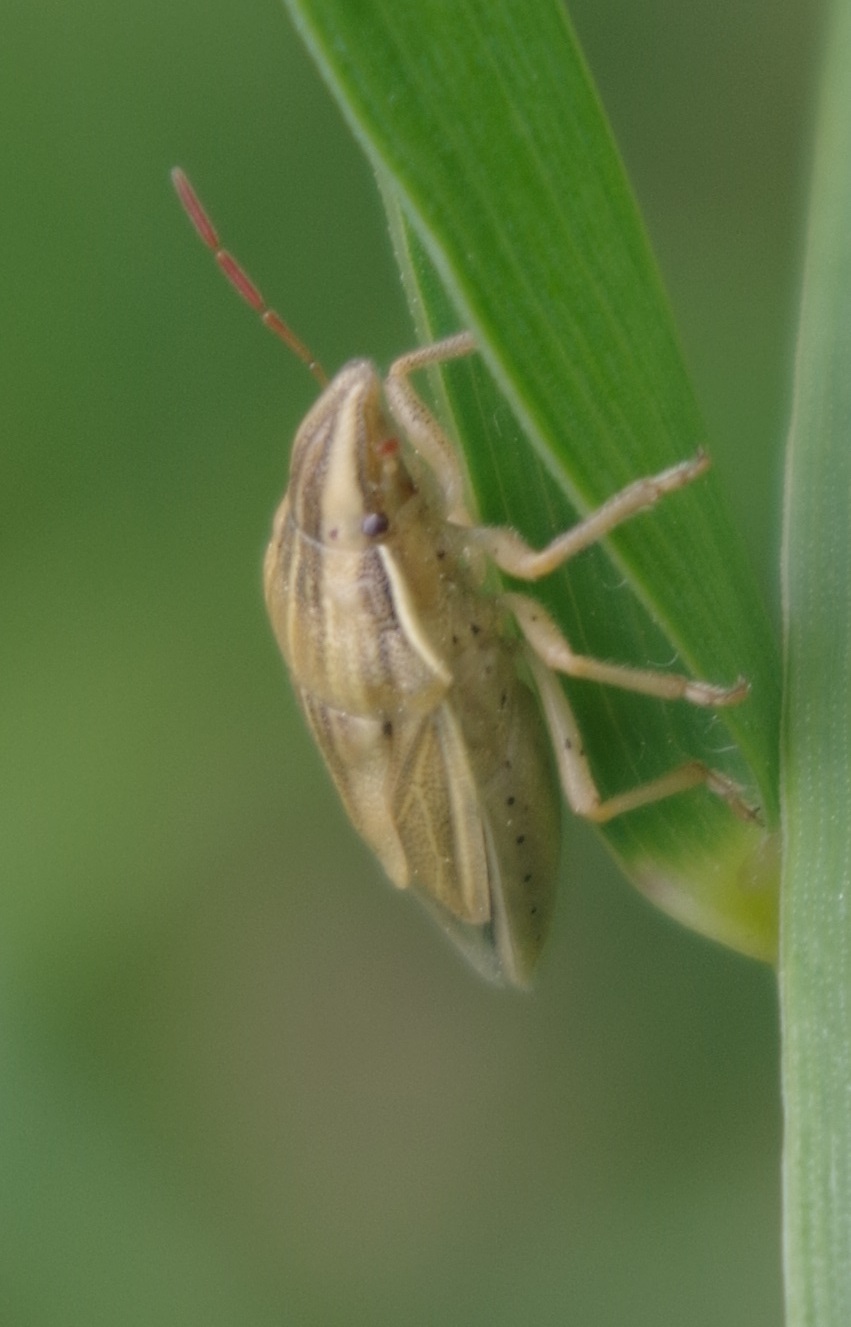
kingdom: Animalia
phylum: Arthropoda
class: Insecta
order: Hemiptera
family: Pentatomidae
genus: Aelia
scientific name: Aelia acuminata
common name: Bishop's mitre
